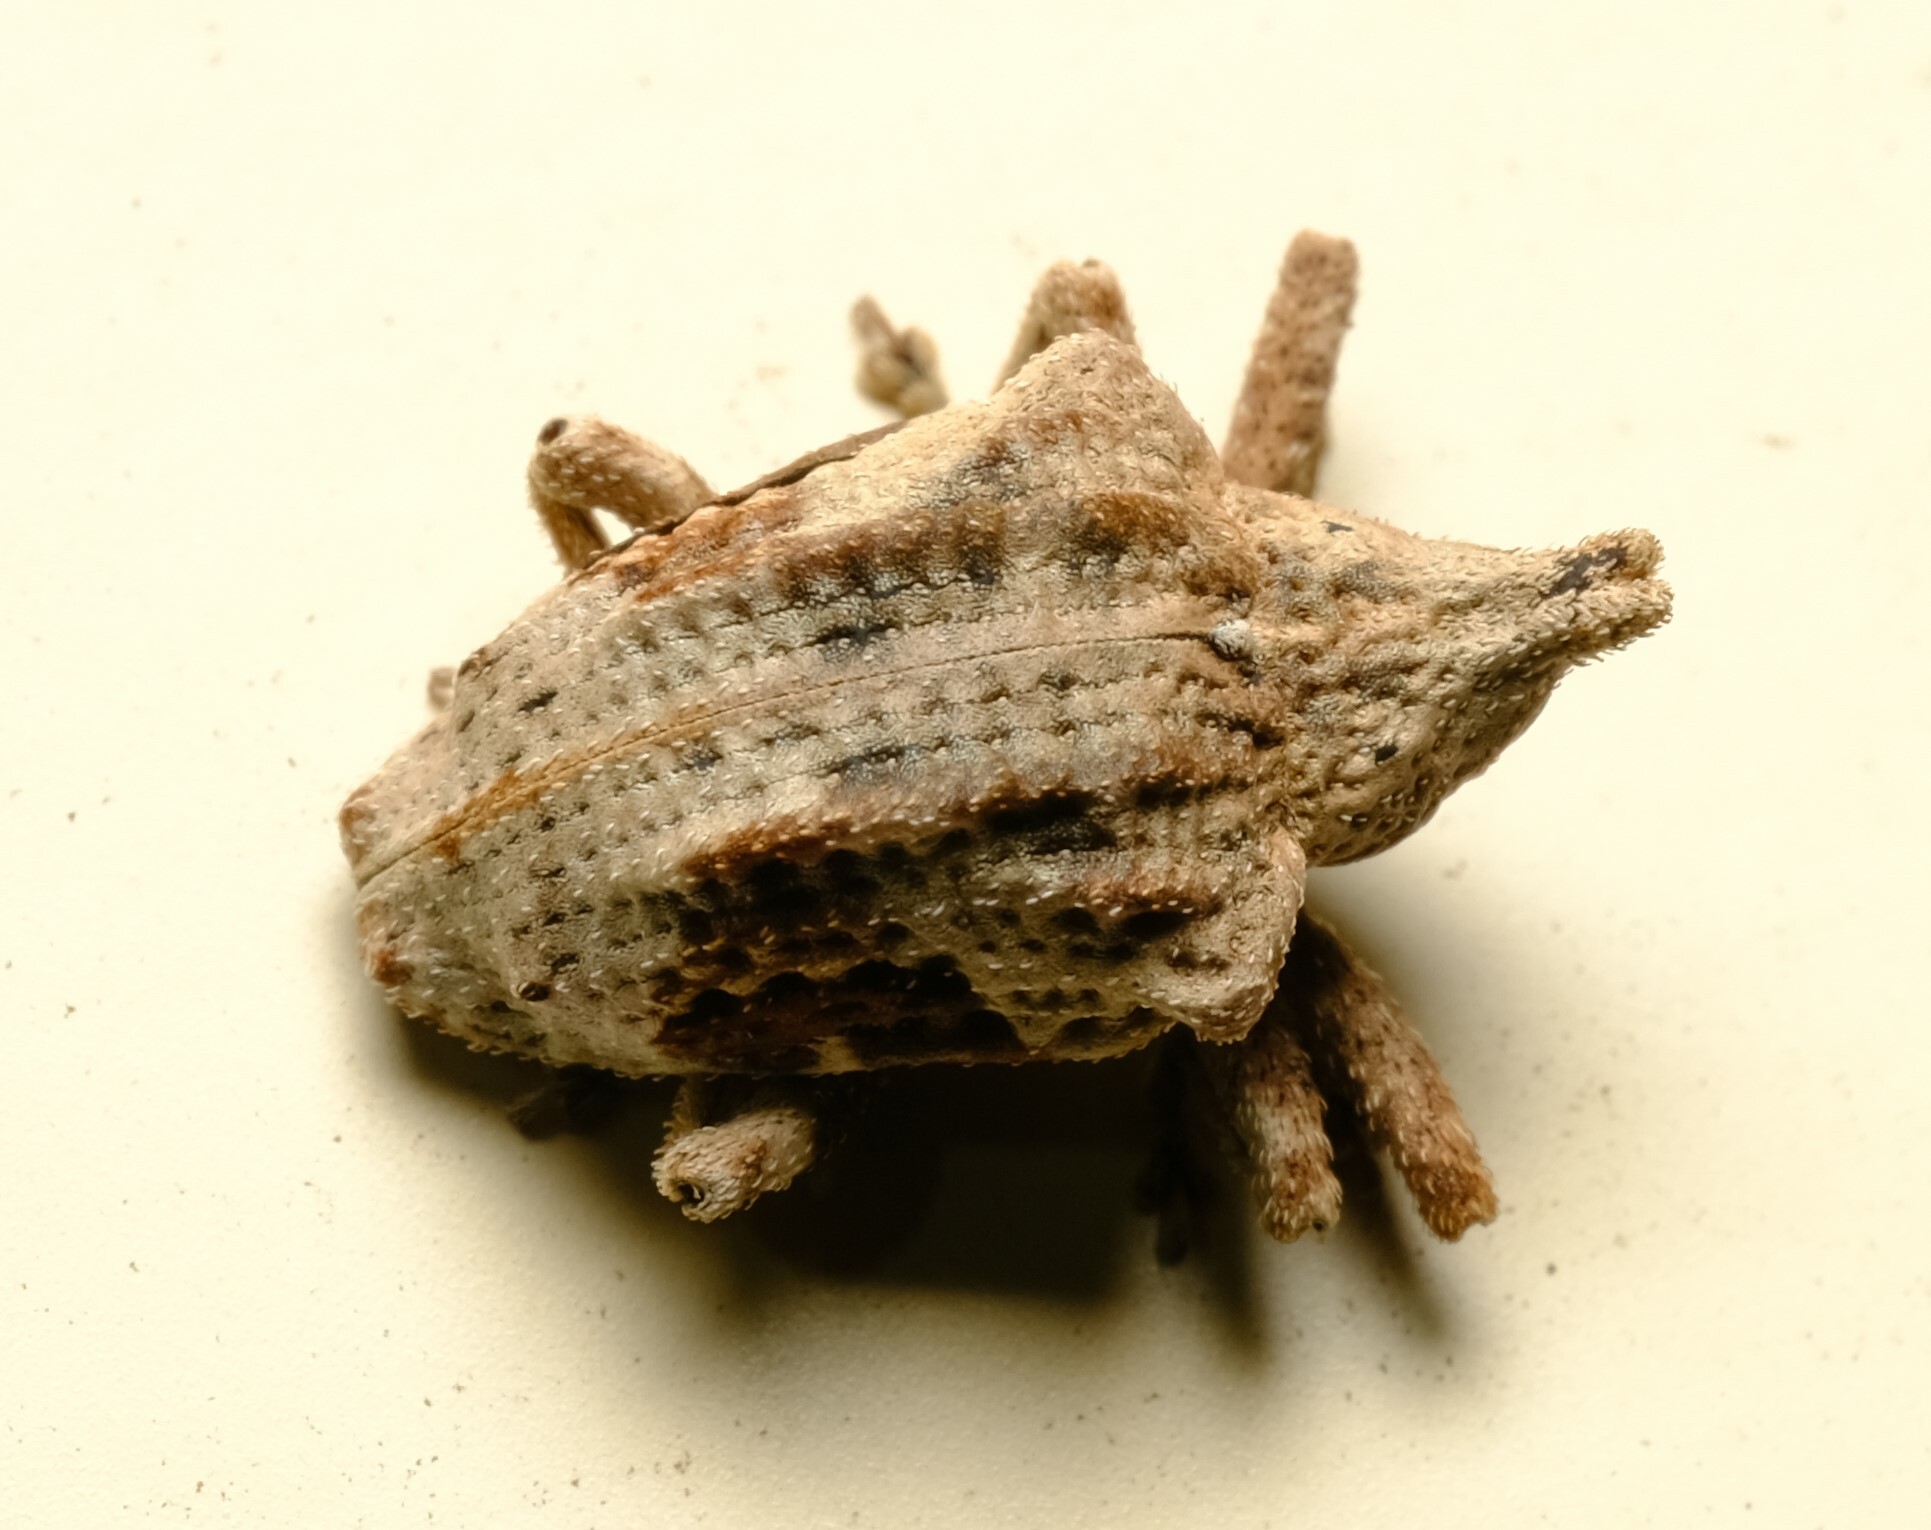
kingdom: Animalia
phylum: Arthropoda
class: Insecta
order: Coleoptera
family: Curculionidae
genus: Oemethylus
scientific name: Oemethylus
